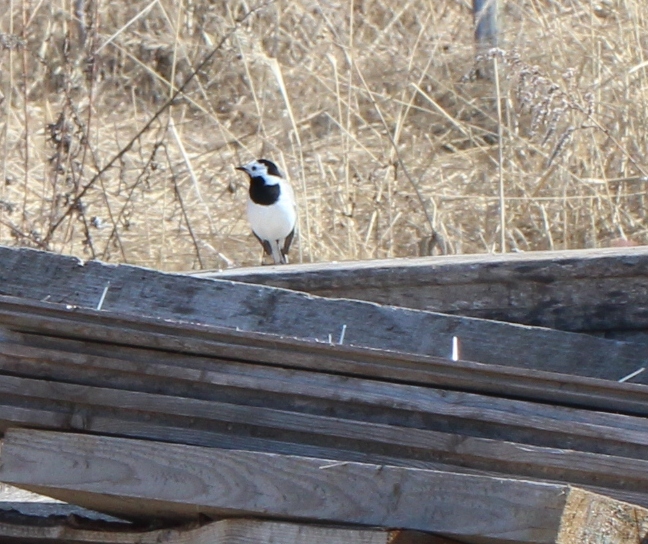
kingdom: Animalia
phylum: Chordata
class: Aves
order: Passeriformes
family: Motacillidae
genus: Motacilla
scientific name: Motacilla alba
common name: White wagtail
